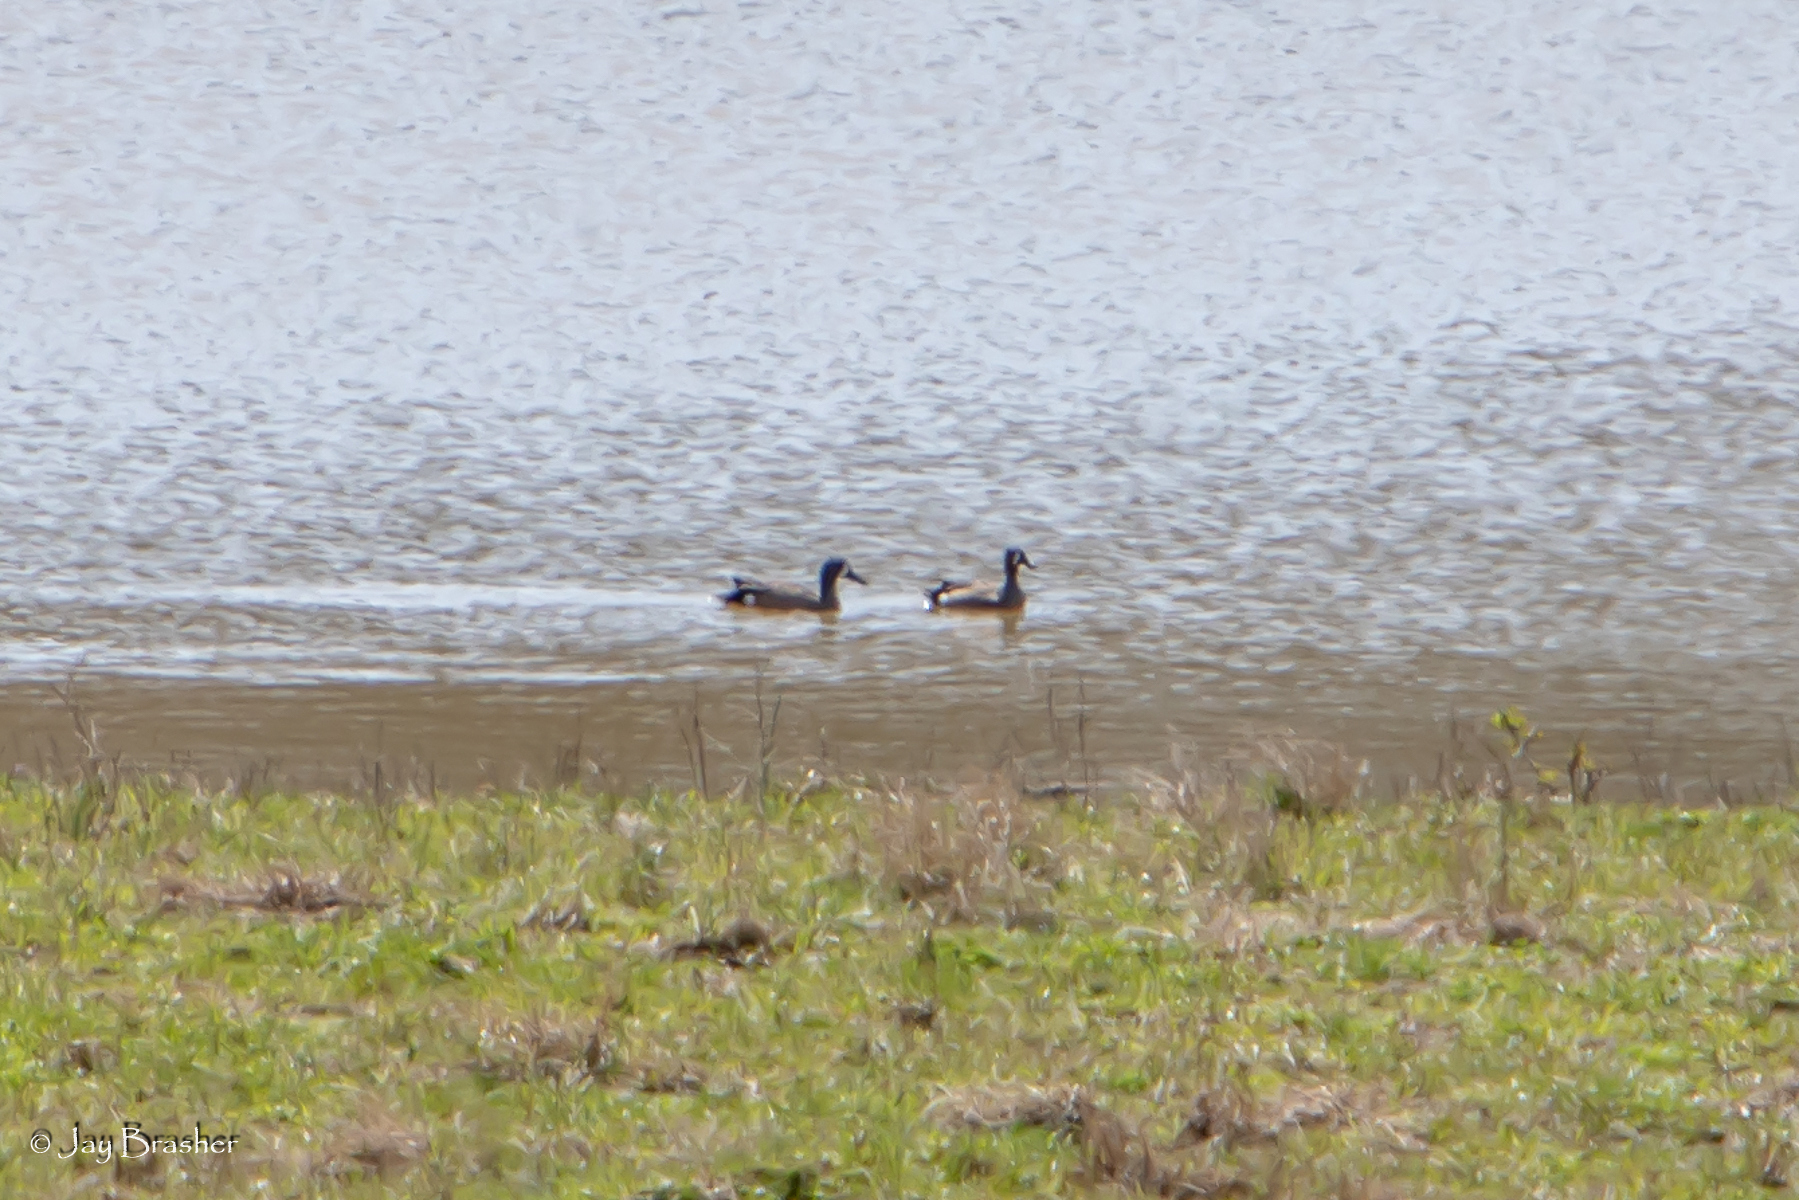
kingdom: Animalia
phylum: Chordata
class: Aves
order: Anseriformes
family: Anatidae
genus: Spatula
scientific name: Spatula discors
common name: Blue-winged teal
